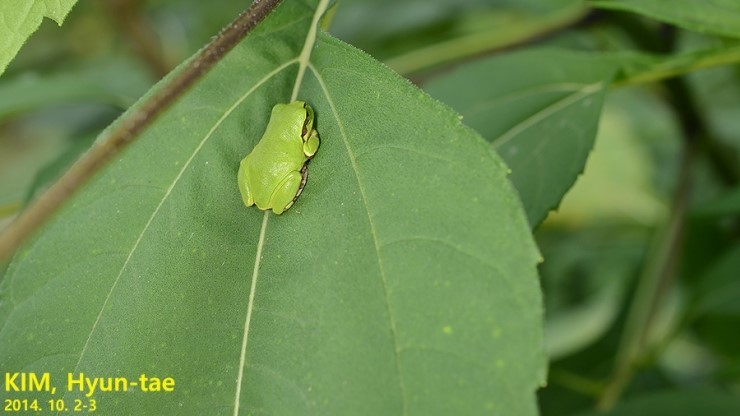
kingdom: Animalia
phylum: Chordata
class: Amphibia
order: Anura
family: Hylidae
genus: Dryophytes
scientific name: Dryophytes japonicus
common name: Japanese treefrog
